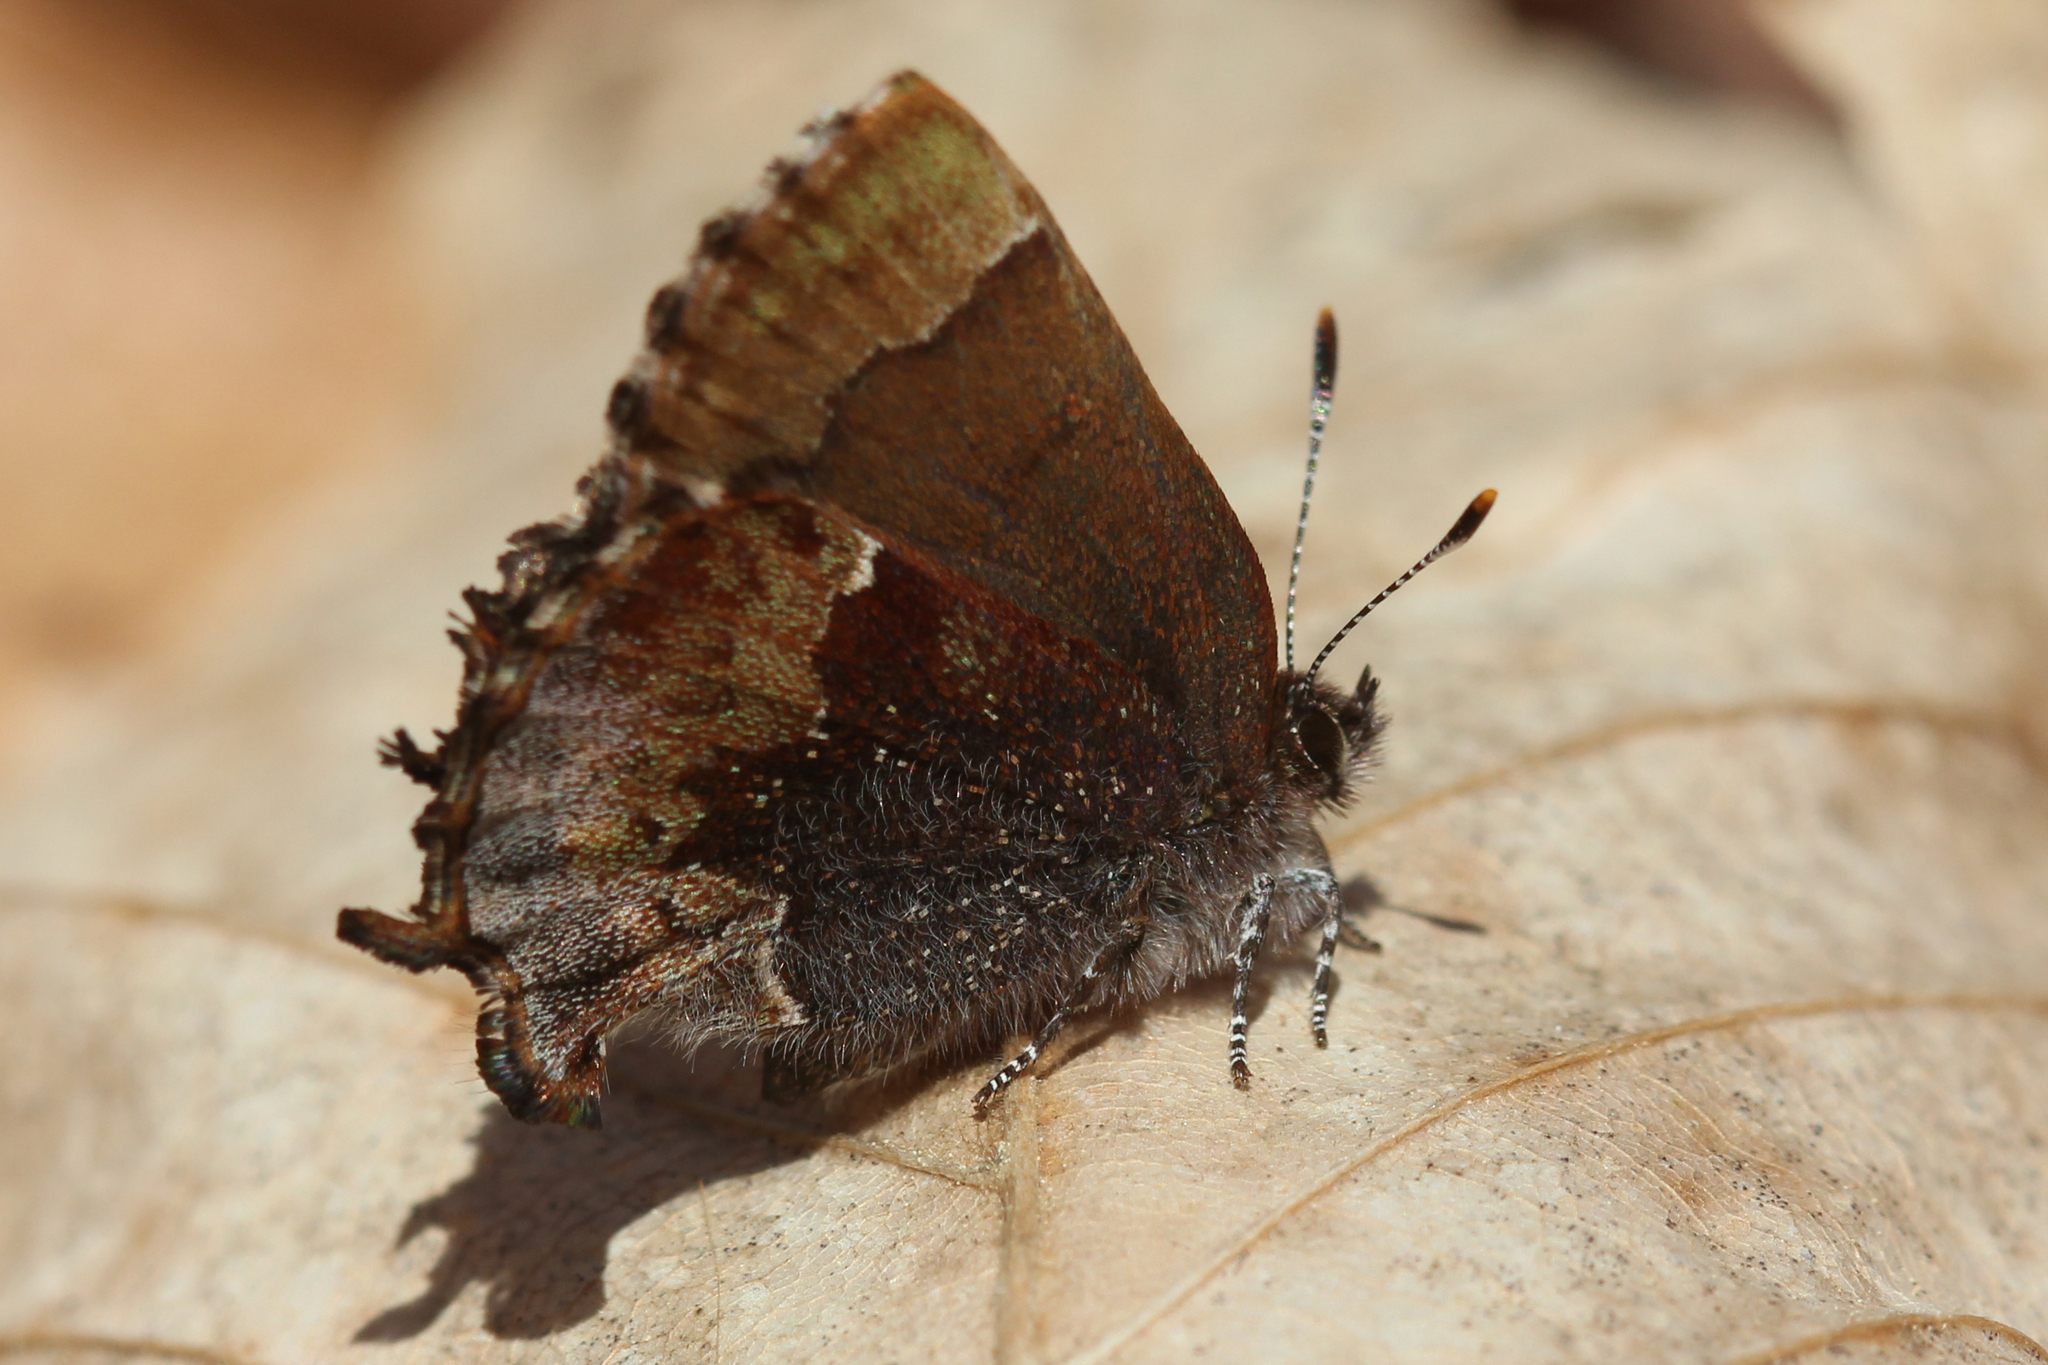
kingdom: Animalia
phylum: Arthropoda
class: Insecta
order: Lepidoptera
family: Lycaenidae
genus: Incisalia
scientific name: Incisalia henrici
